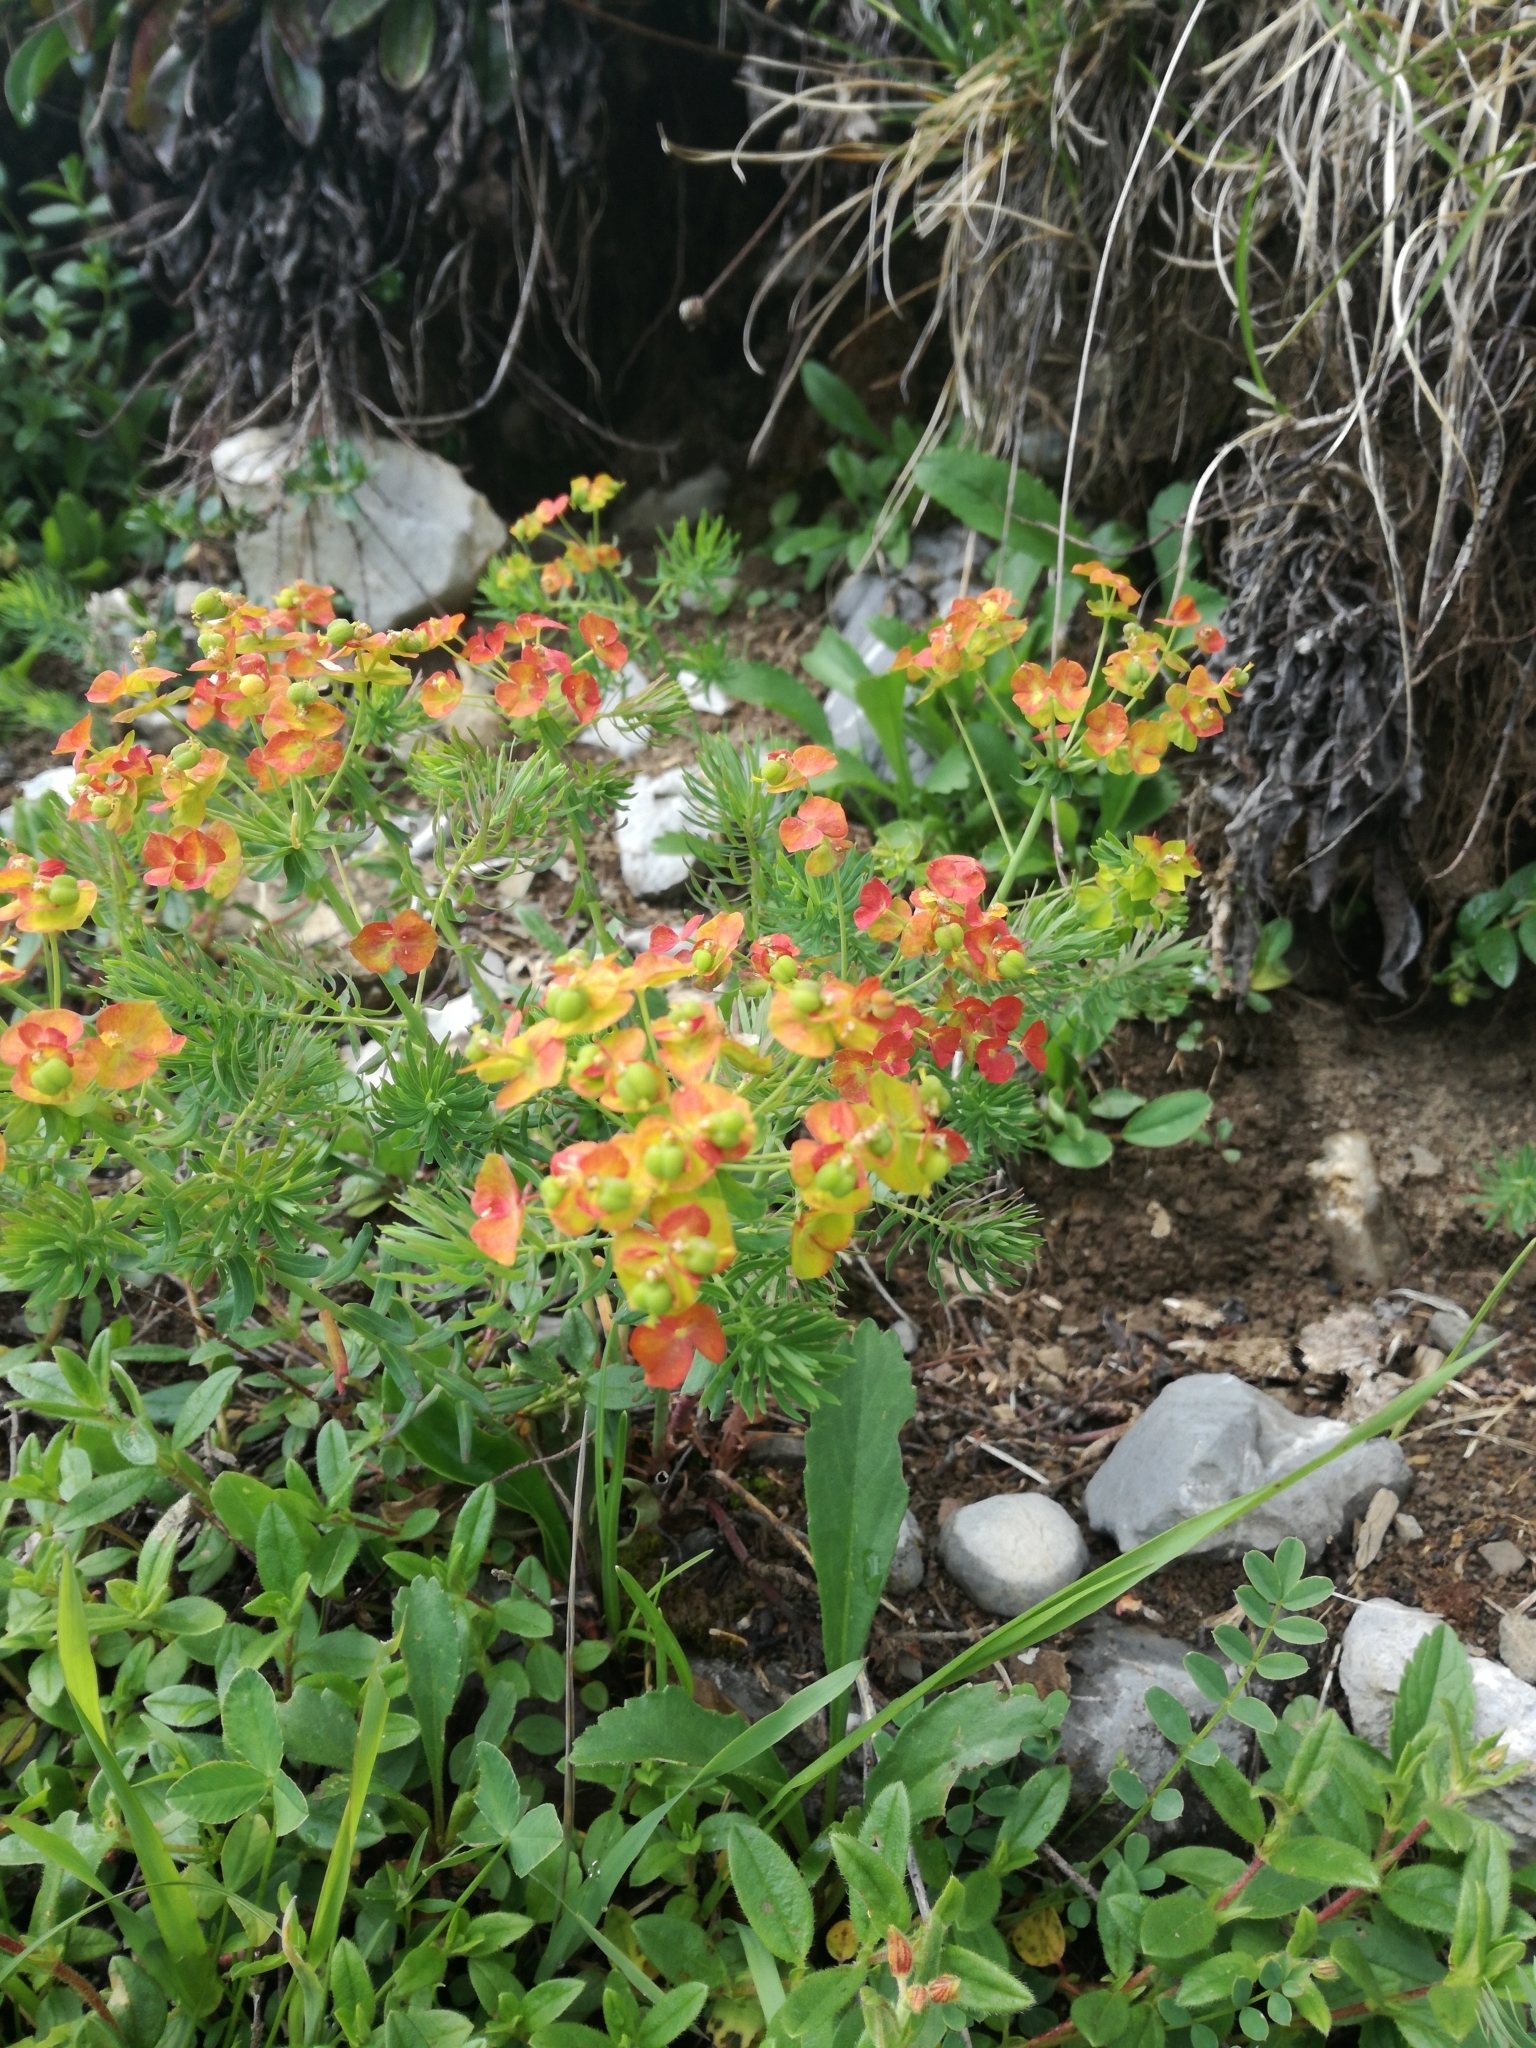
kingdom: Plantae
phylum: Tracheophyta
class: Magnoliopsida
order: Malpighiales
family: Euphorbiaceae
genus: Euphorbia
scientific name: Euphorbia cyparissias
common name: Cypress spurge
